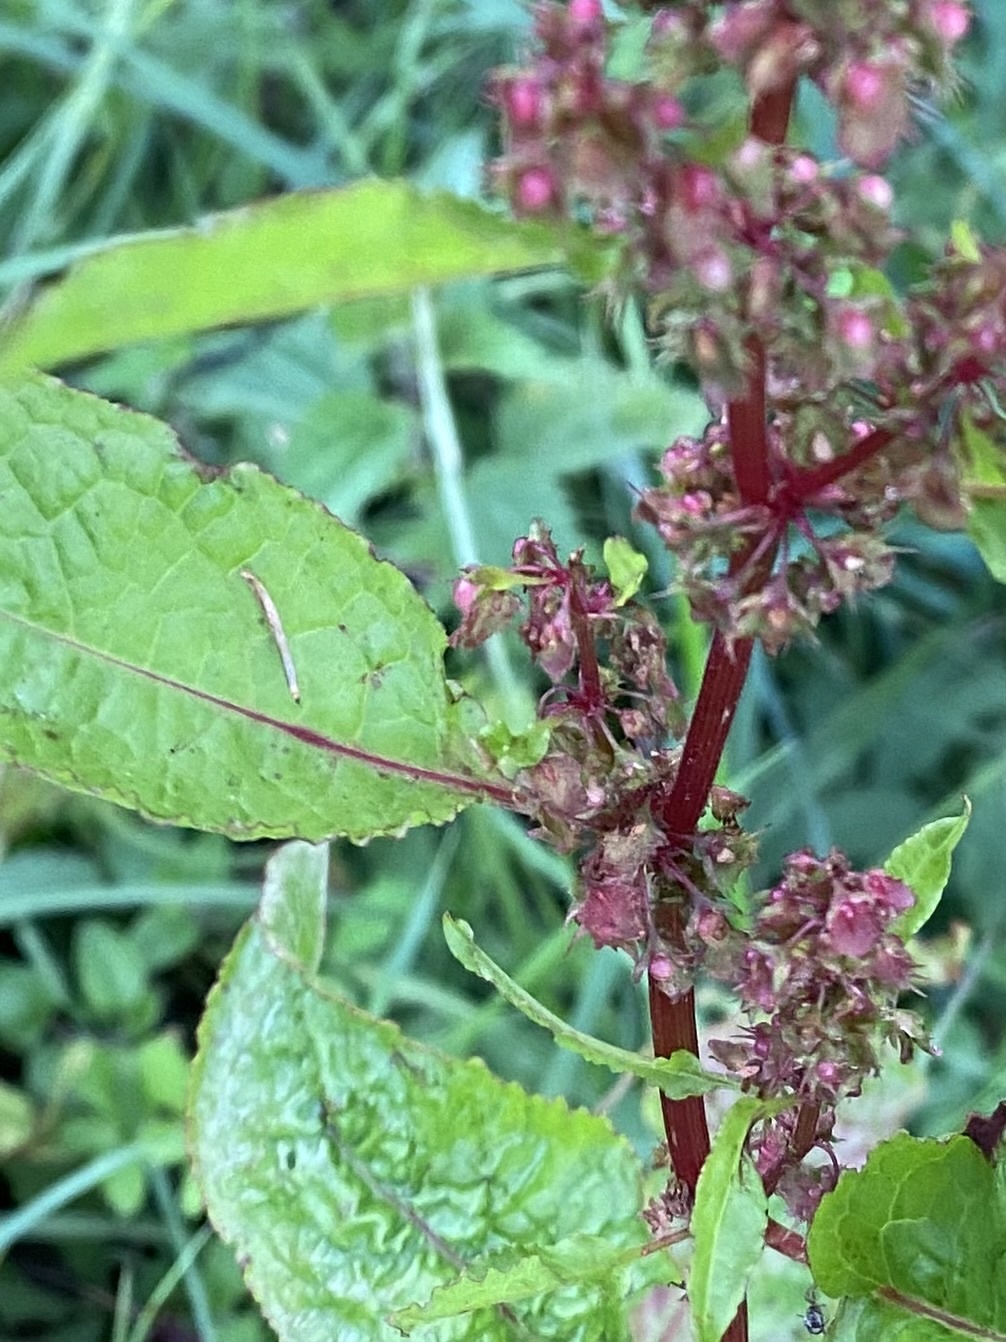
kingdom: Plantae
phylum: Tracheophyta
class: Magnoliopsida
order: Caryophyllales
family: Polygonaceae
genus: Rumex
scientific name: Rumex obtusifolius
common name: Bitter dock
